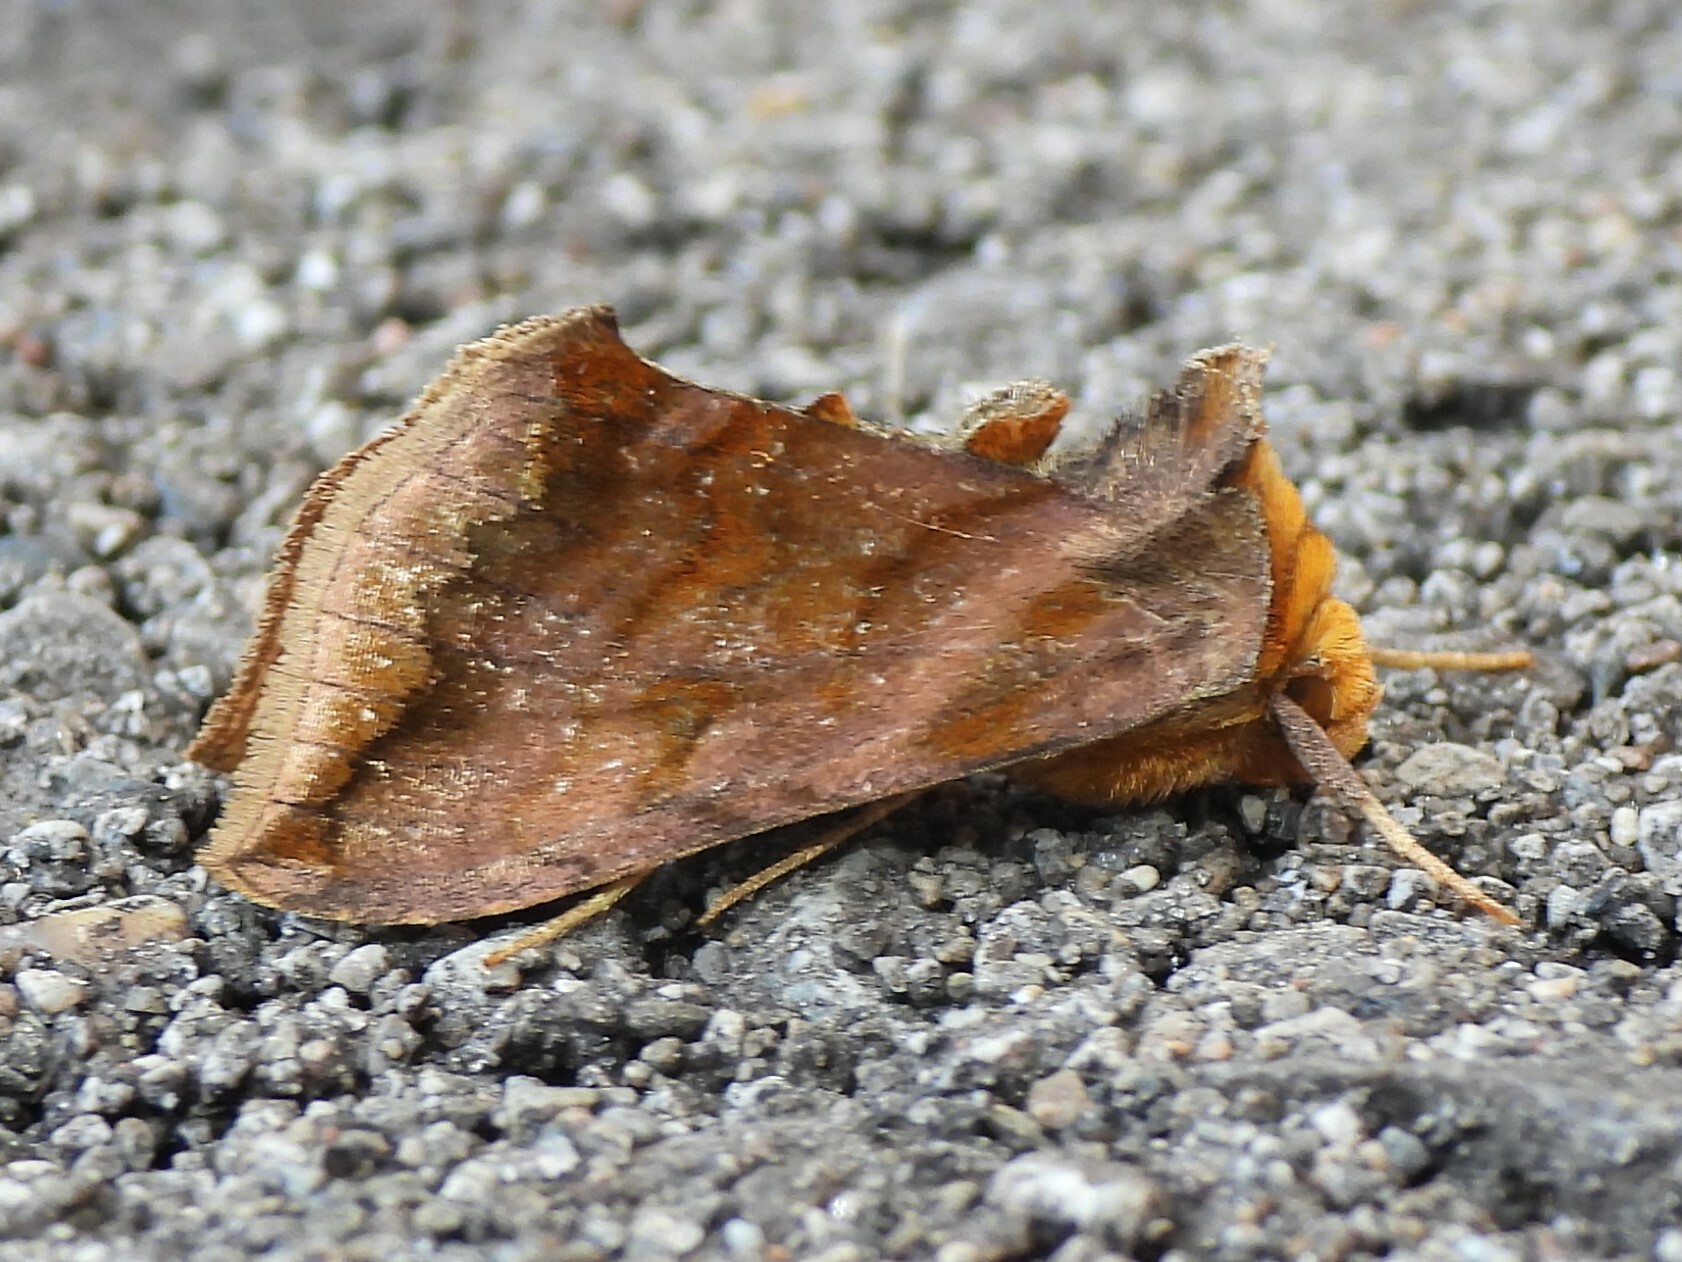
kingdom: Animalia
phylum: Arthropoda
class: Insecta
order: Lepidoptera
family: Noctuidae
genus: Allagrapha
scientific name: Allagrapha aerea
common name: Unspotted looper moth
